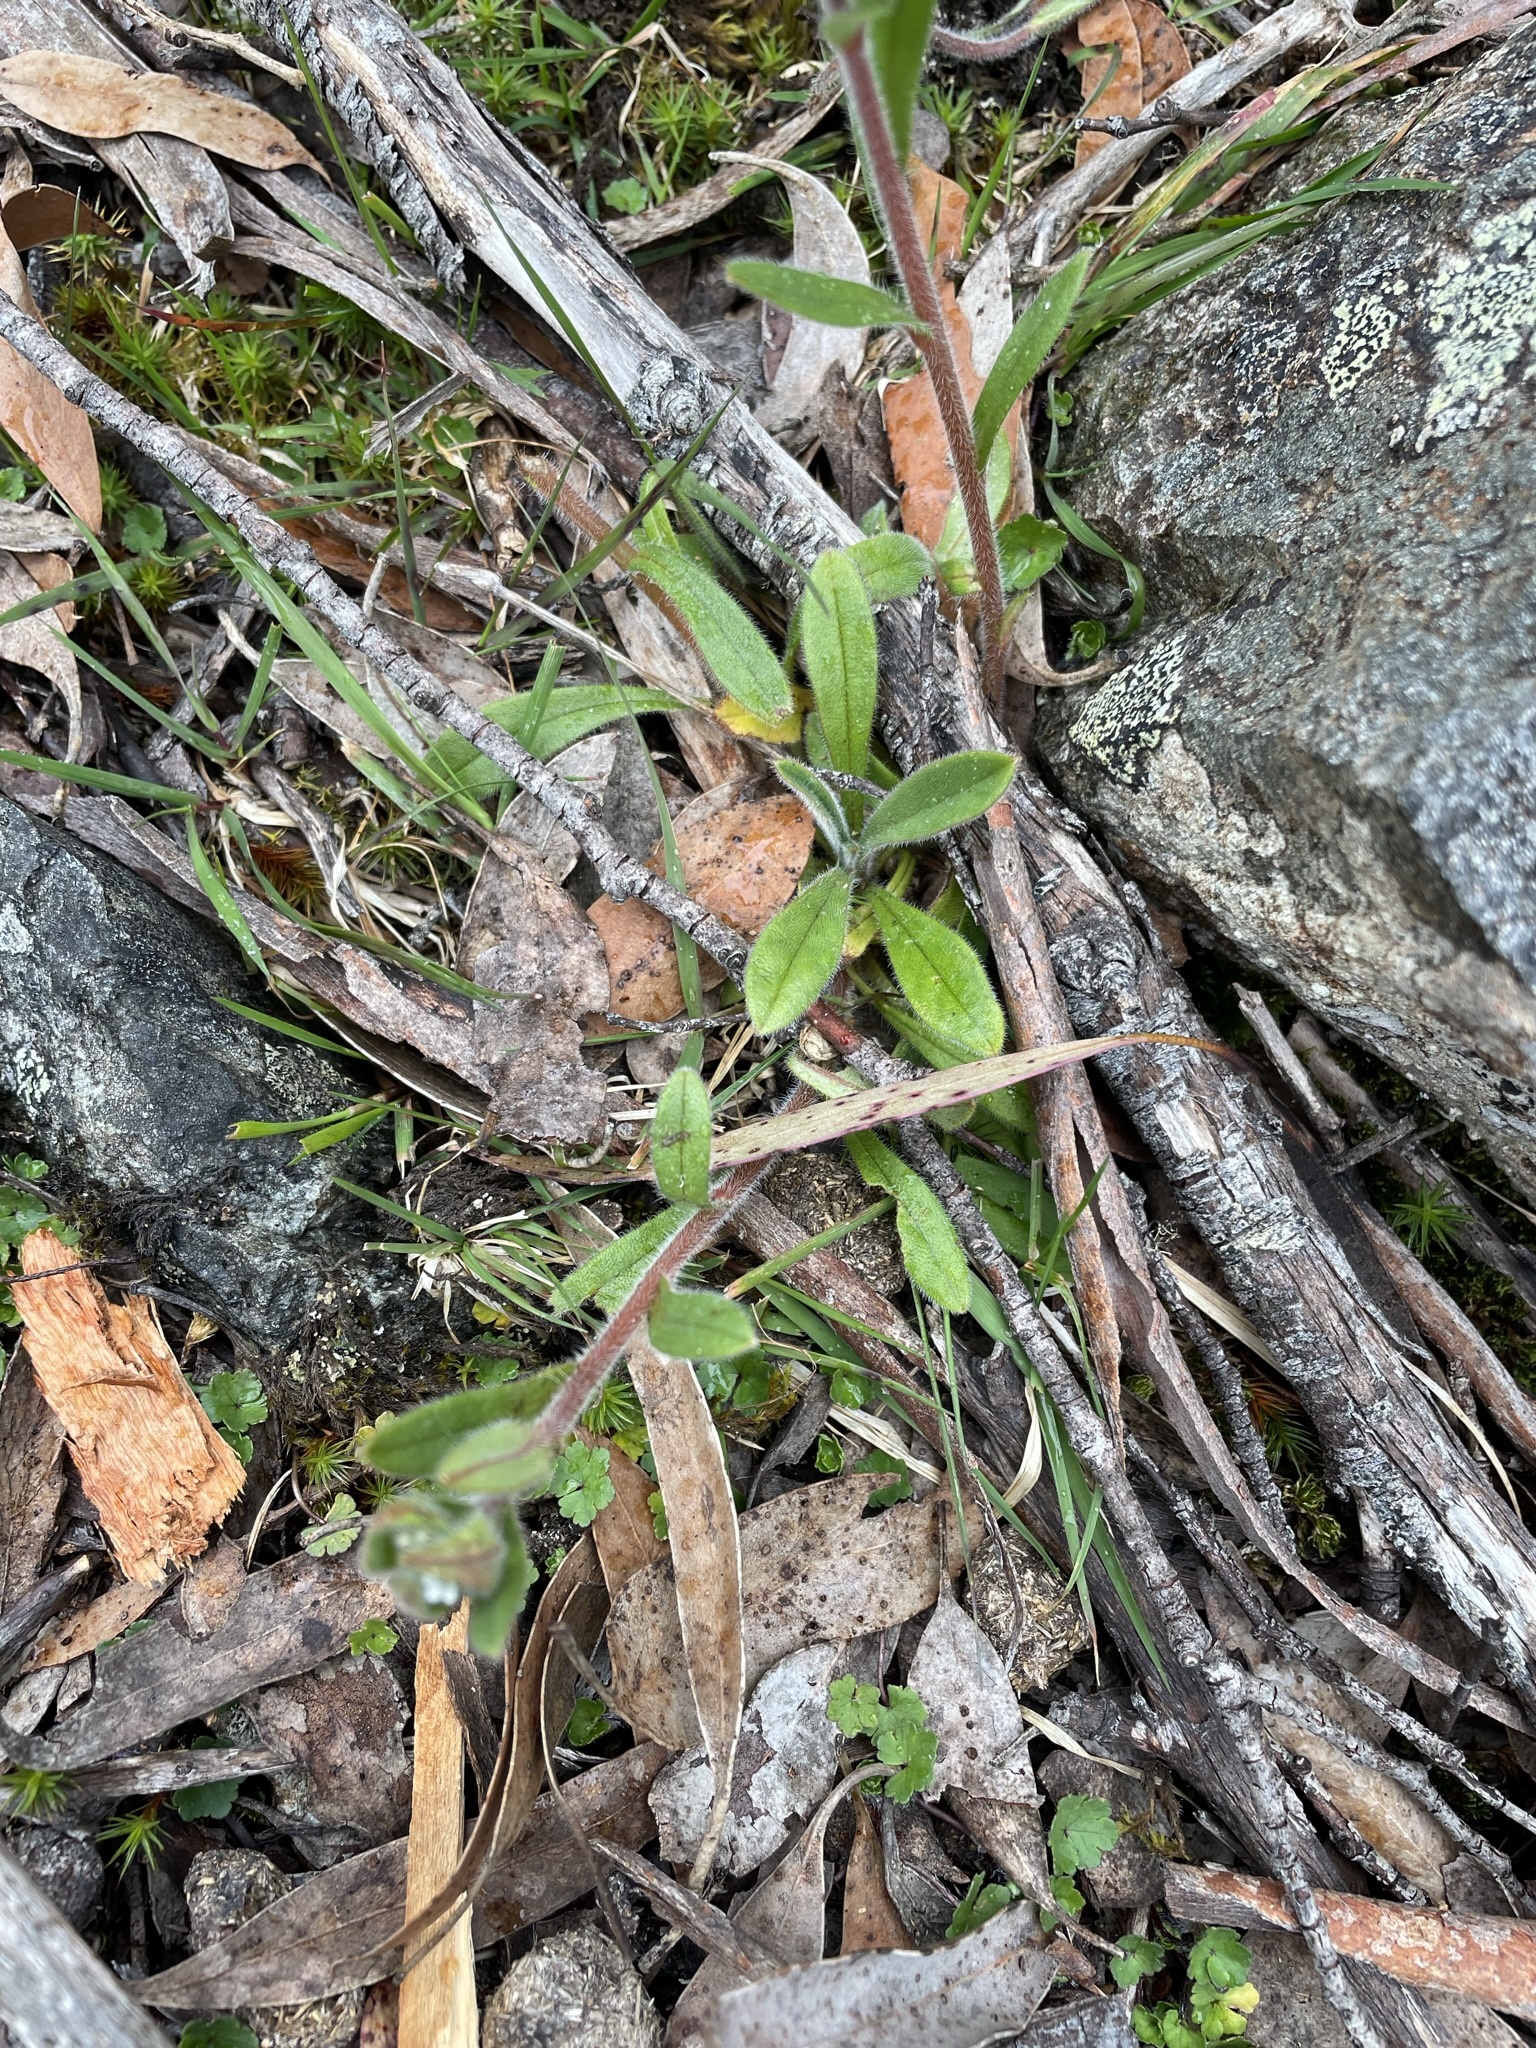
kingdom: Plantae
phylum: Tracheophyta
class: Magnoliopsida
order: Boraginales
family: Boraginaceae
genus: Myosotis
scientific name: Myosotis australis
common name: Australian forget-me-not
